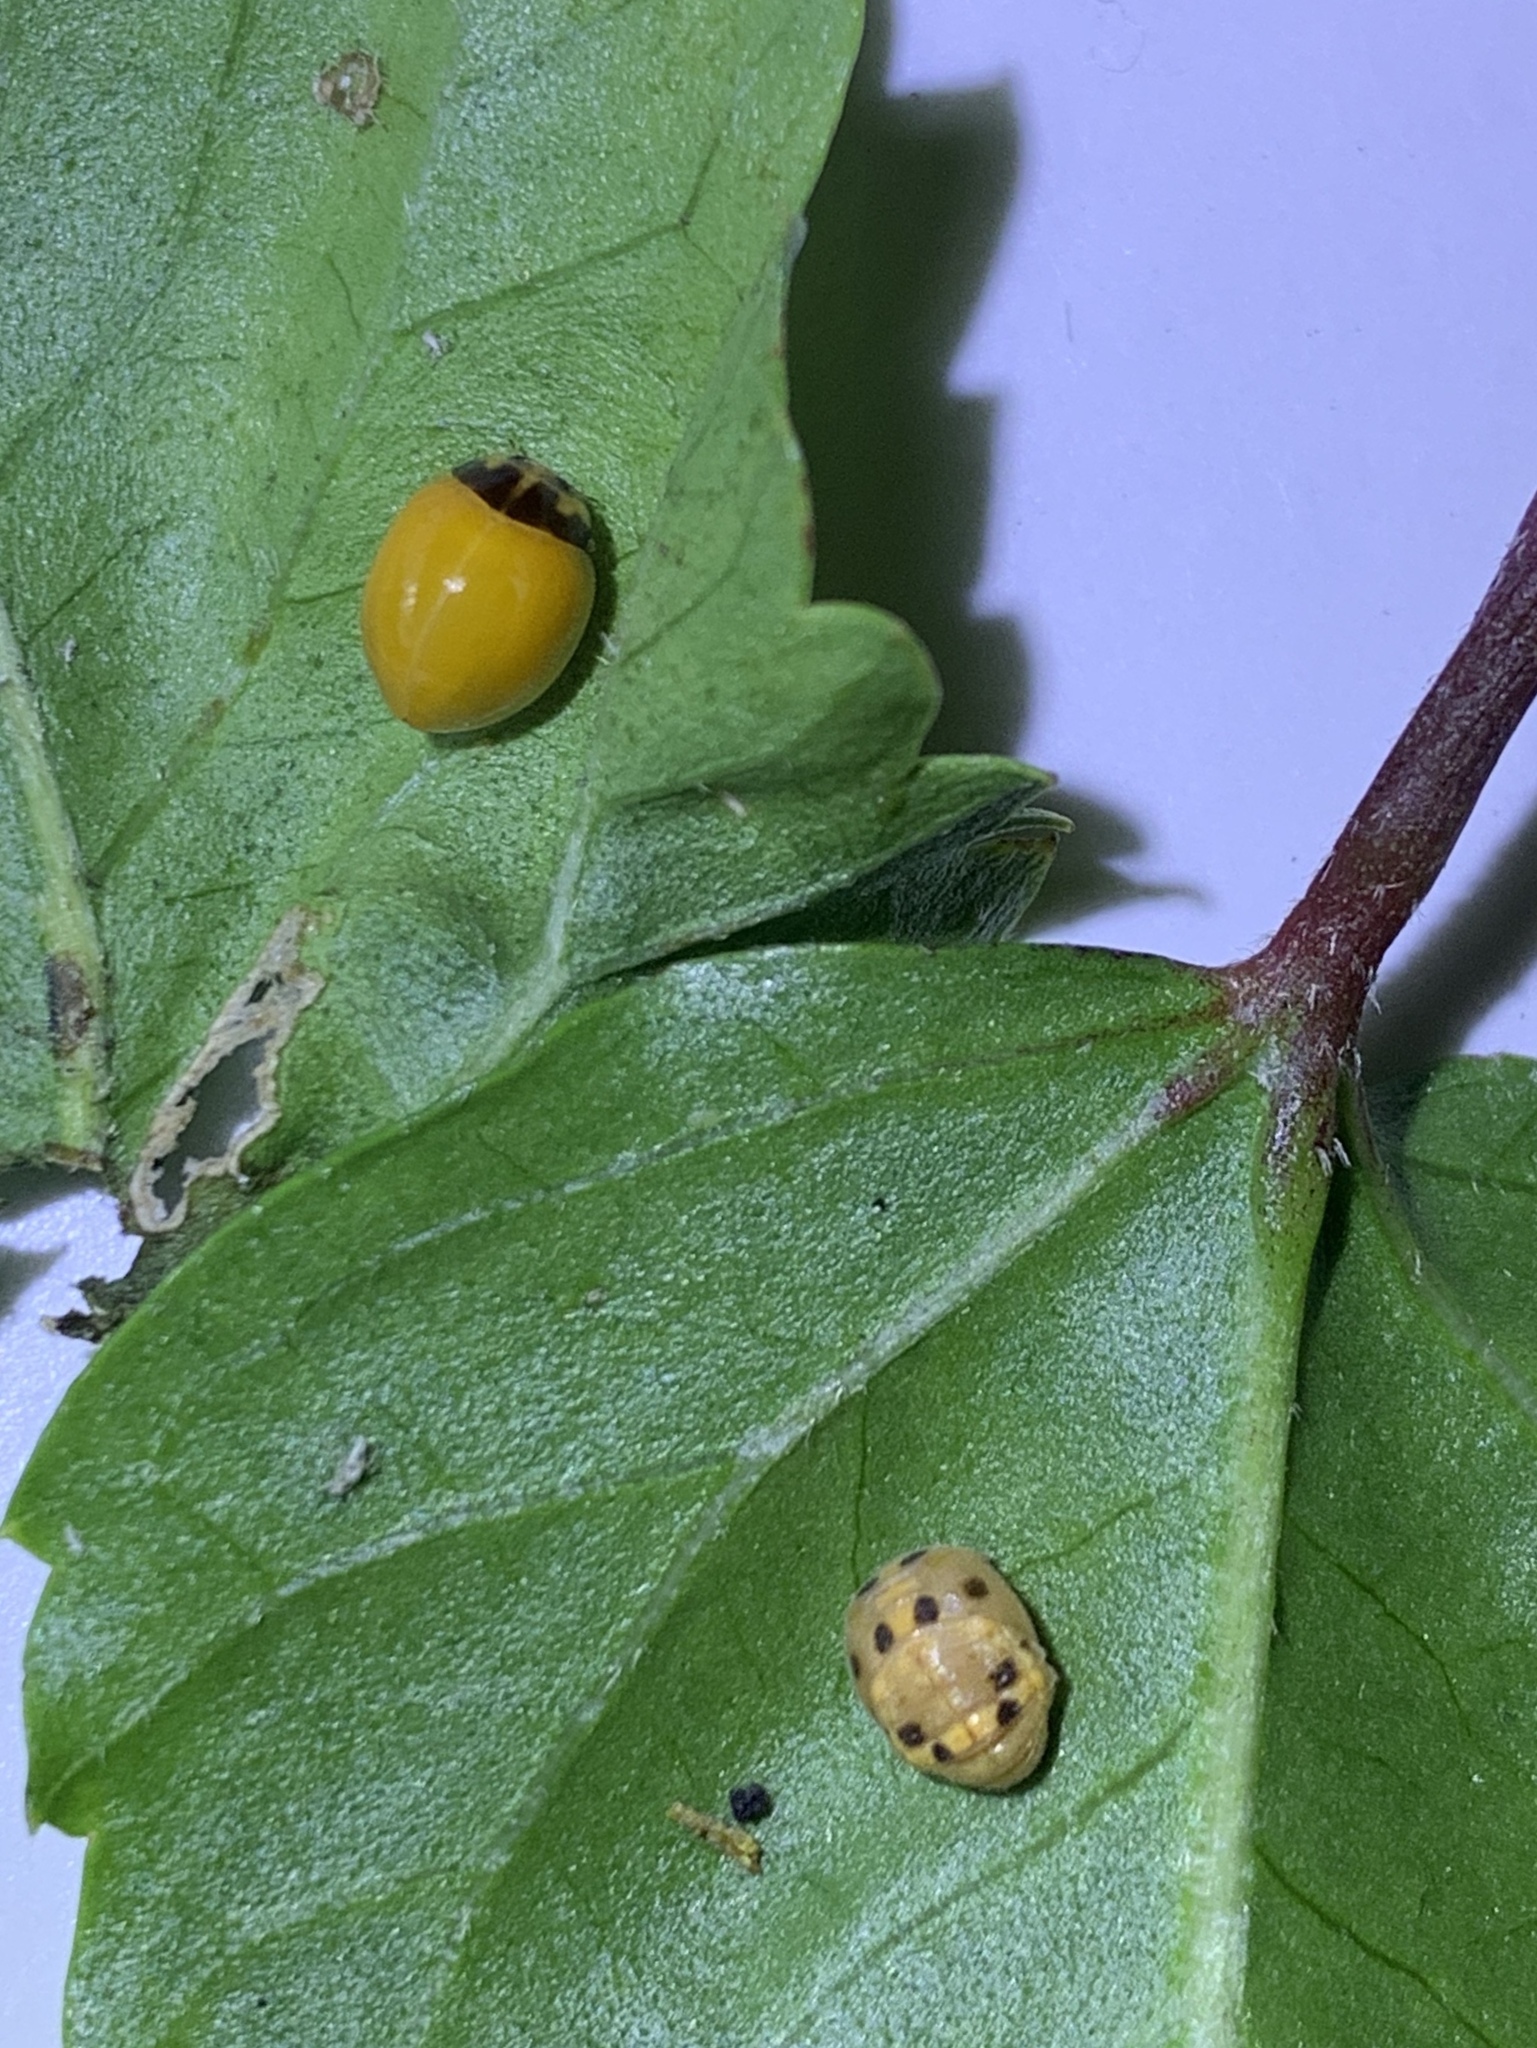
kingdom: Animalia
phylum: Arthropoda
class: Insecta
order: Coleoptera
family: Coccinellidae
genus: Coelophora
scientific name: Coelophora inaequalis
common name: Common australian lady beetle
